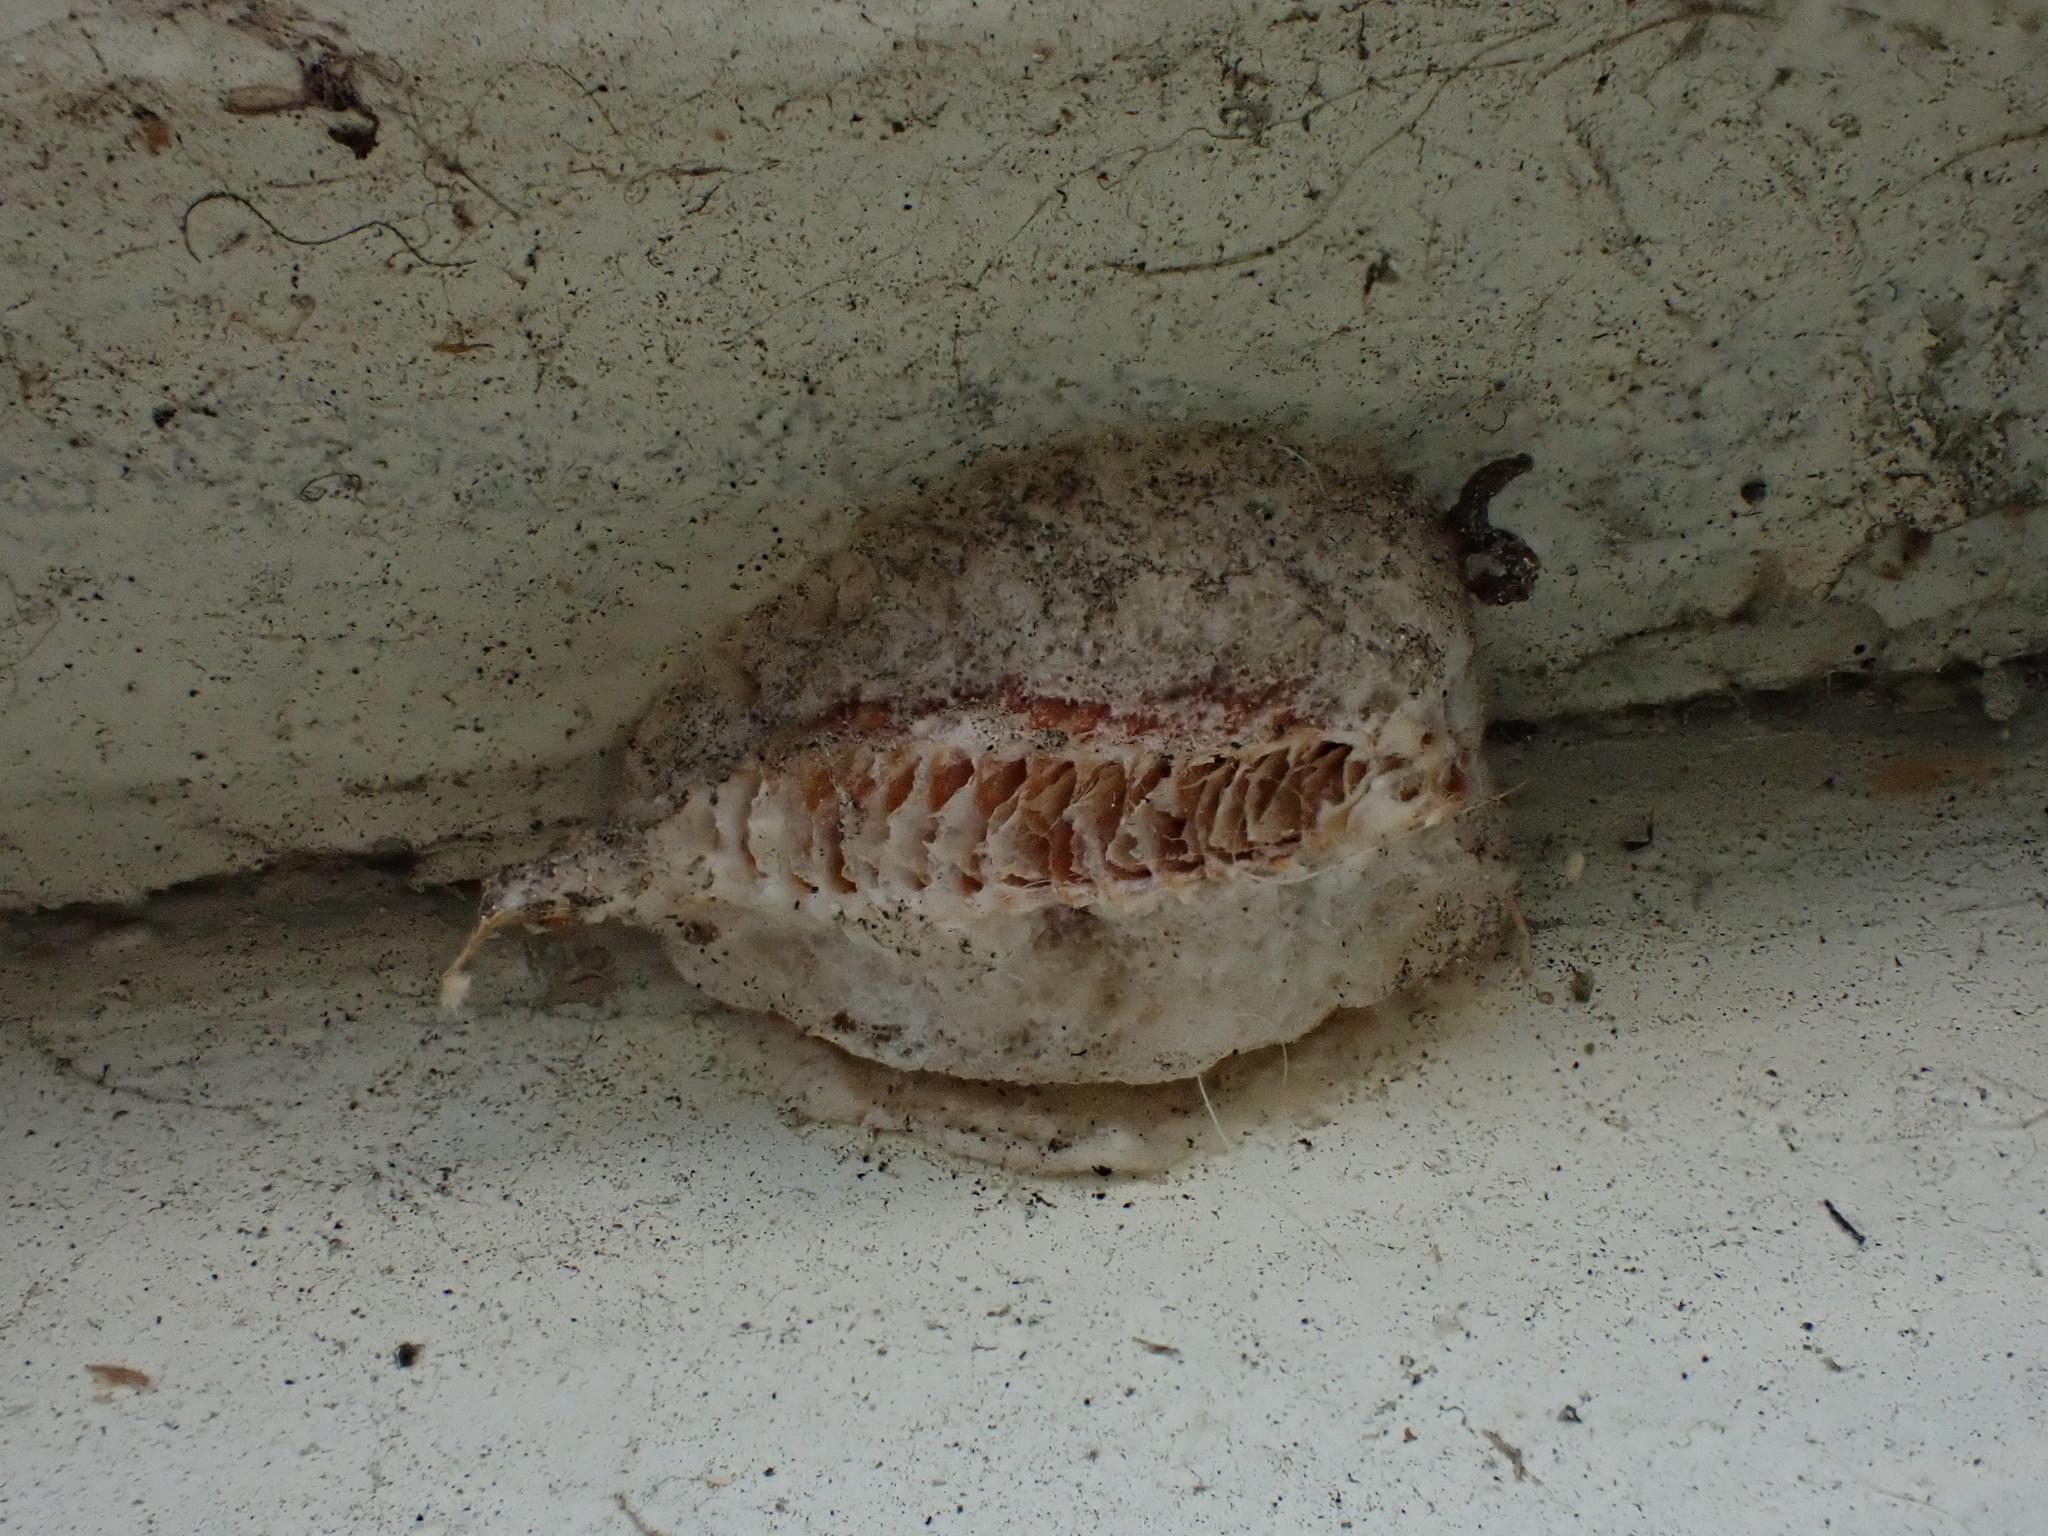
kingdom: Animalia
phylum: Arthropoda
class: Insecta
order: Mantodea
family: Miomantidae
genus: Miomantis
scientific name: Miomantis caffra
